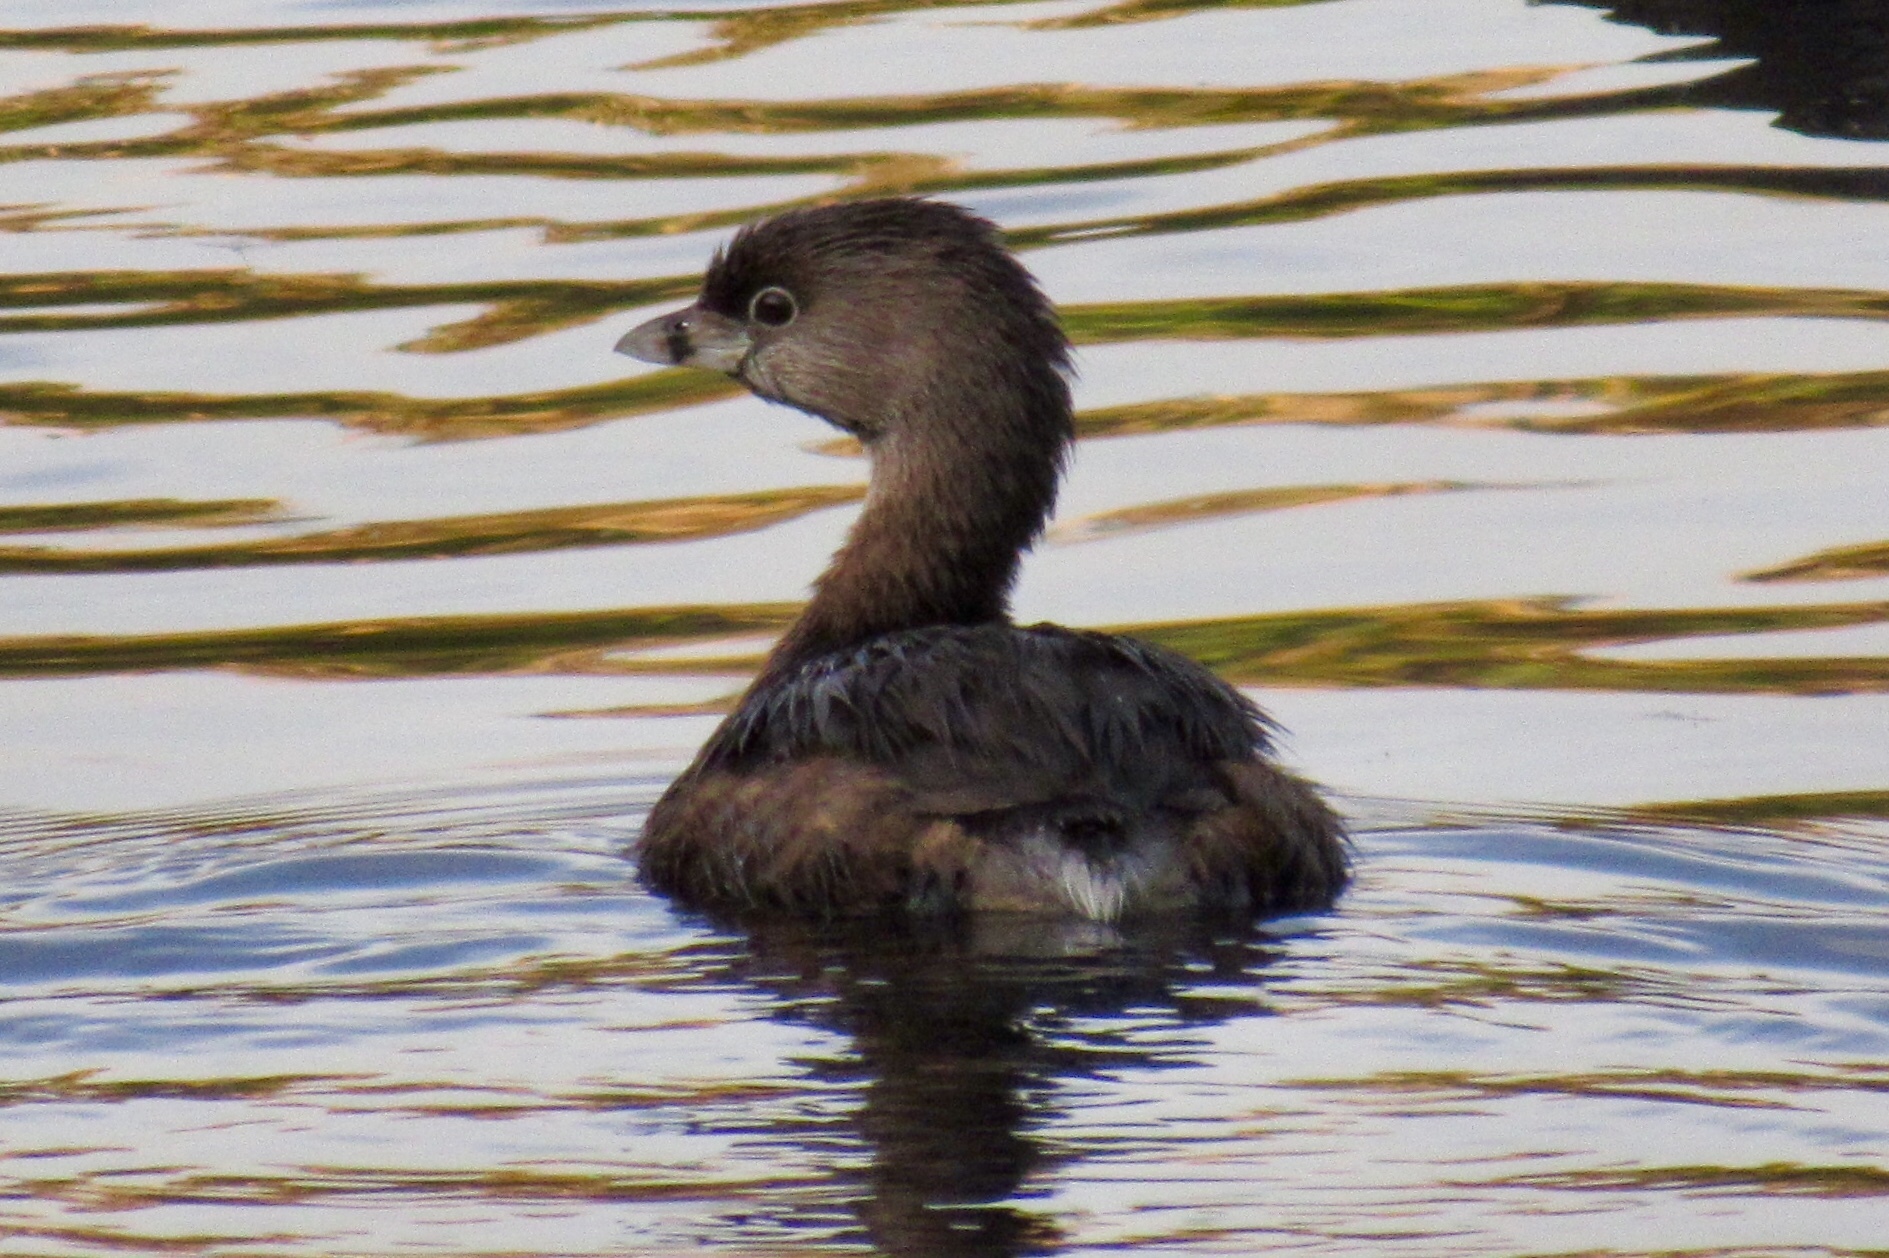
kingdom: Animalia
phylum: Chordata
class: Aves
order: Podicipediformes
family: Podicipedidae
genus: Podilymbus
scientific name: Podilymbus podiceps
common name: Pied-billed grebe
